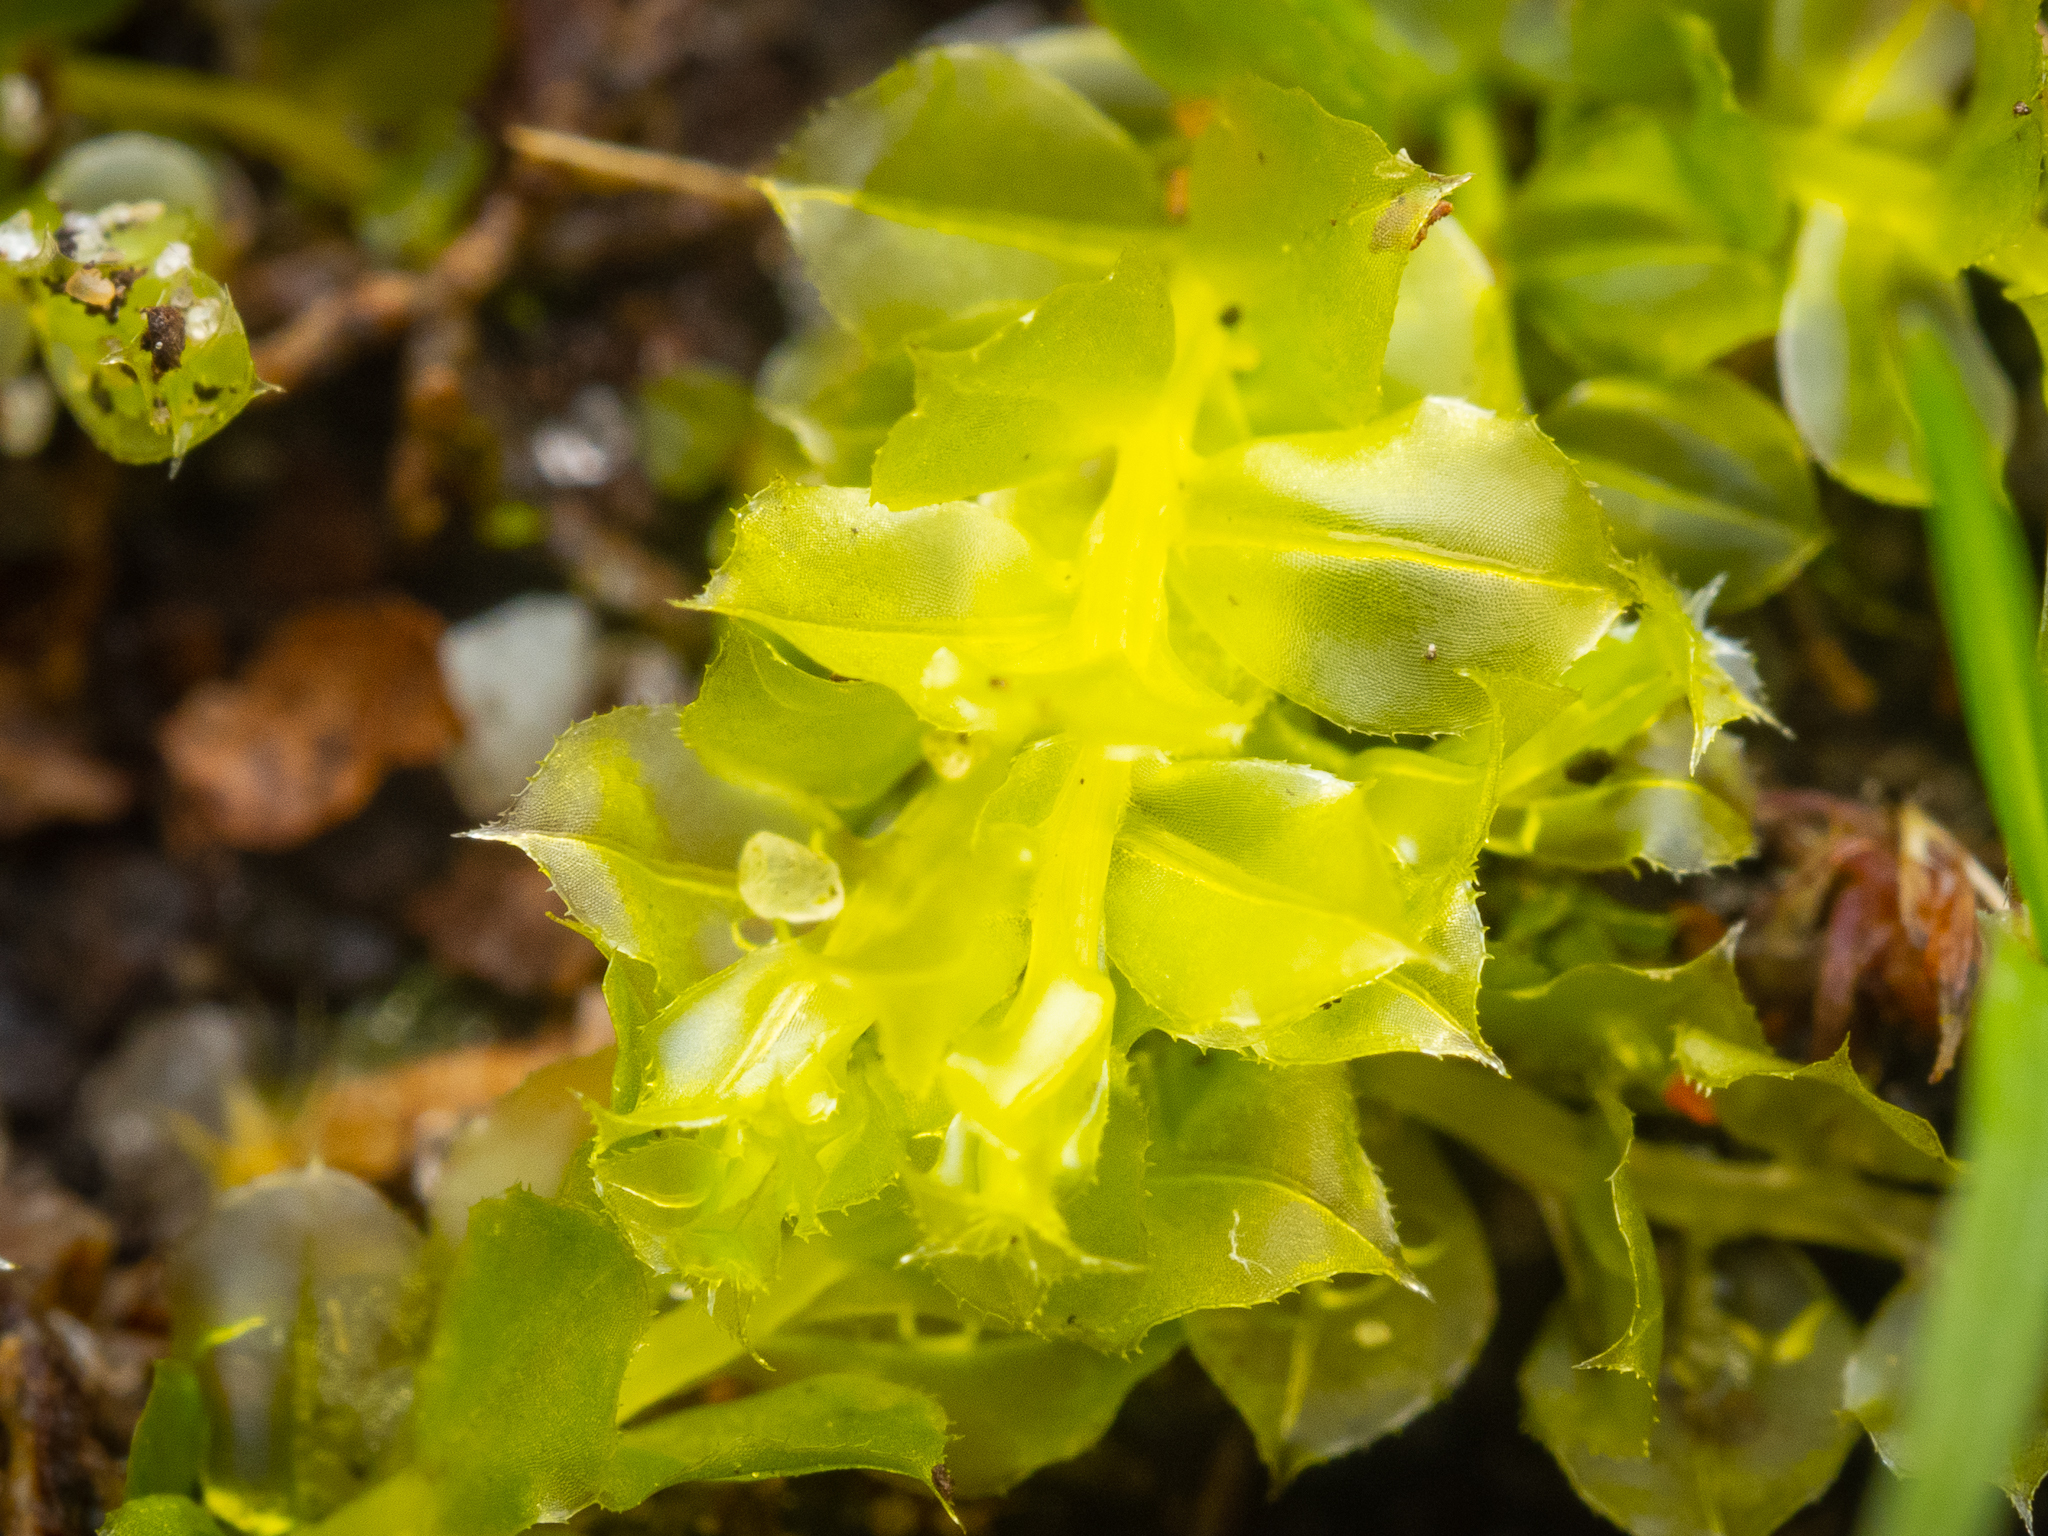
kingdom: Plantae
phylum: Bryophyta
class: Bryopsida
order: Bryales
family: Mniaceae
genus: Plagiomnium
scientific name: Plagiomnium cuspidatum
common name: Woodsy leafy moss
